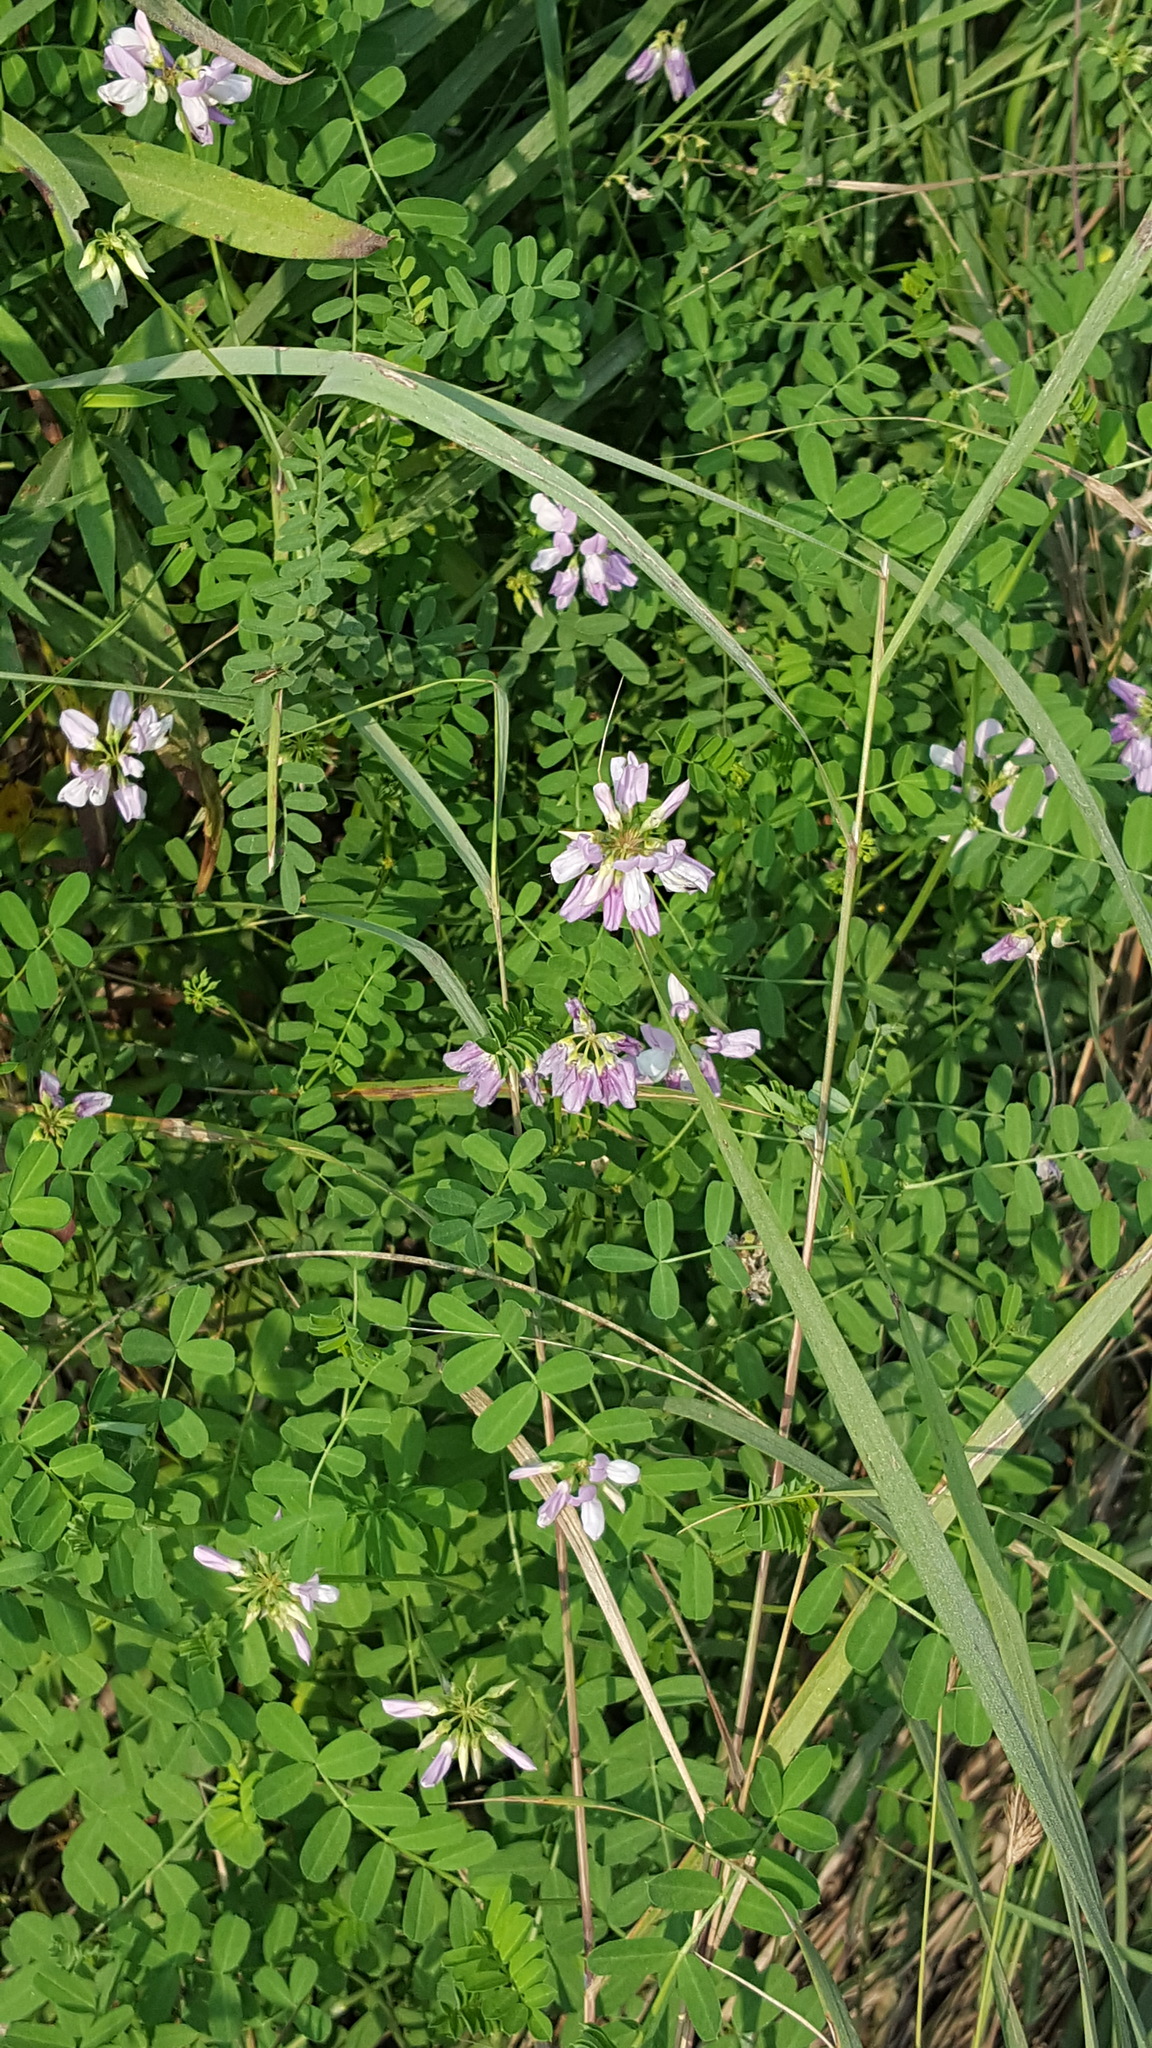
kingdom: Plantae
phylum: Tracheophyta
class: Magnoliopsida
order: Fabales
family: Fabaceae
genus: Coronilla
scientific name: Coronilla varia
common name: Crownvetch
